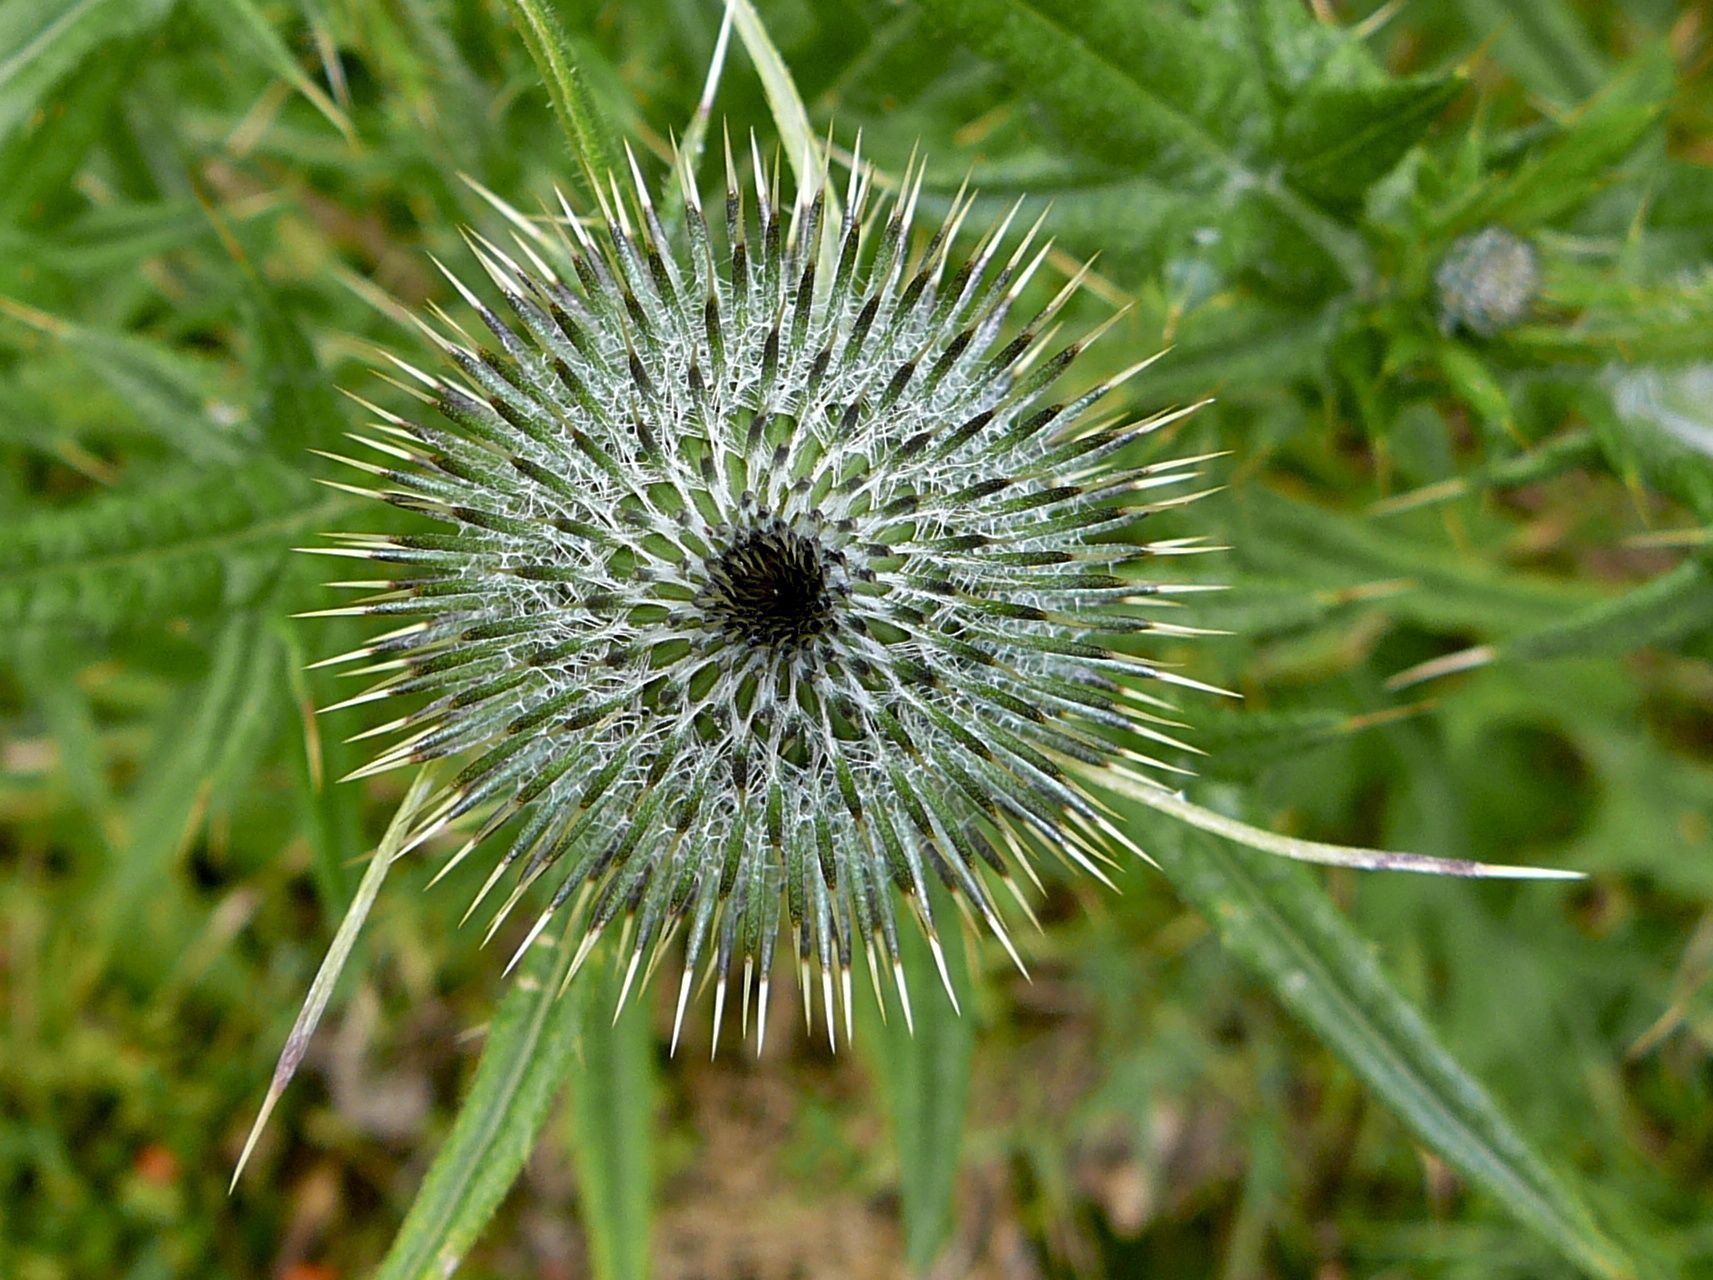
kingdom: Plantae
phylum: Tracheophyta
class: Magnoliopsida
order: Asterales
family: Asteraceae
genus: Cirsium
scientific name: Cirsium vulgare
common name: Bull thistle
